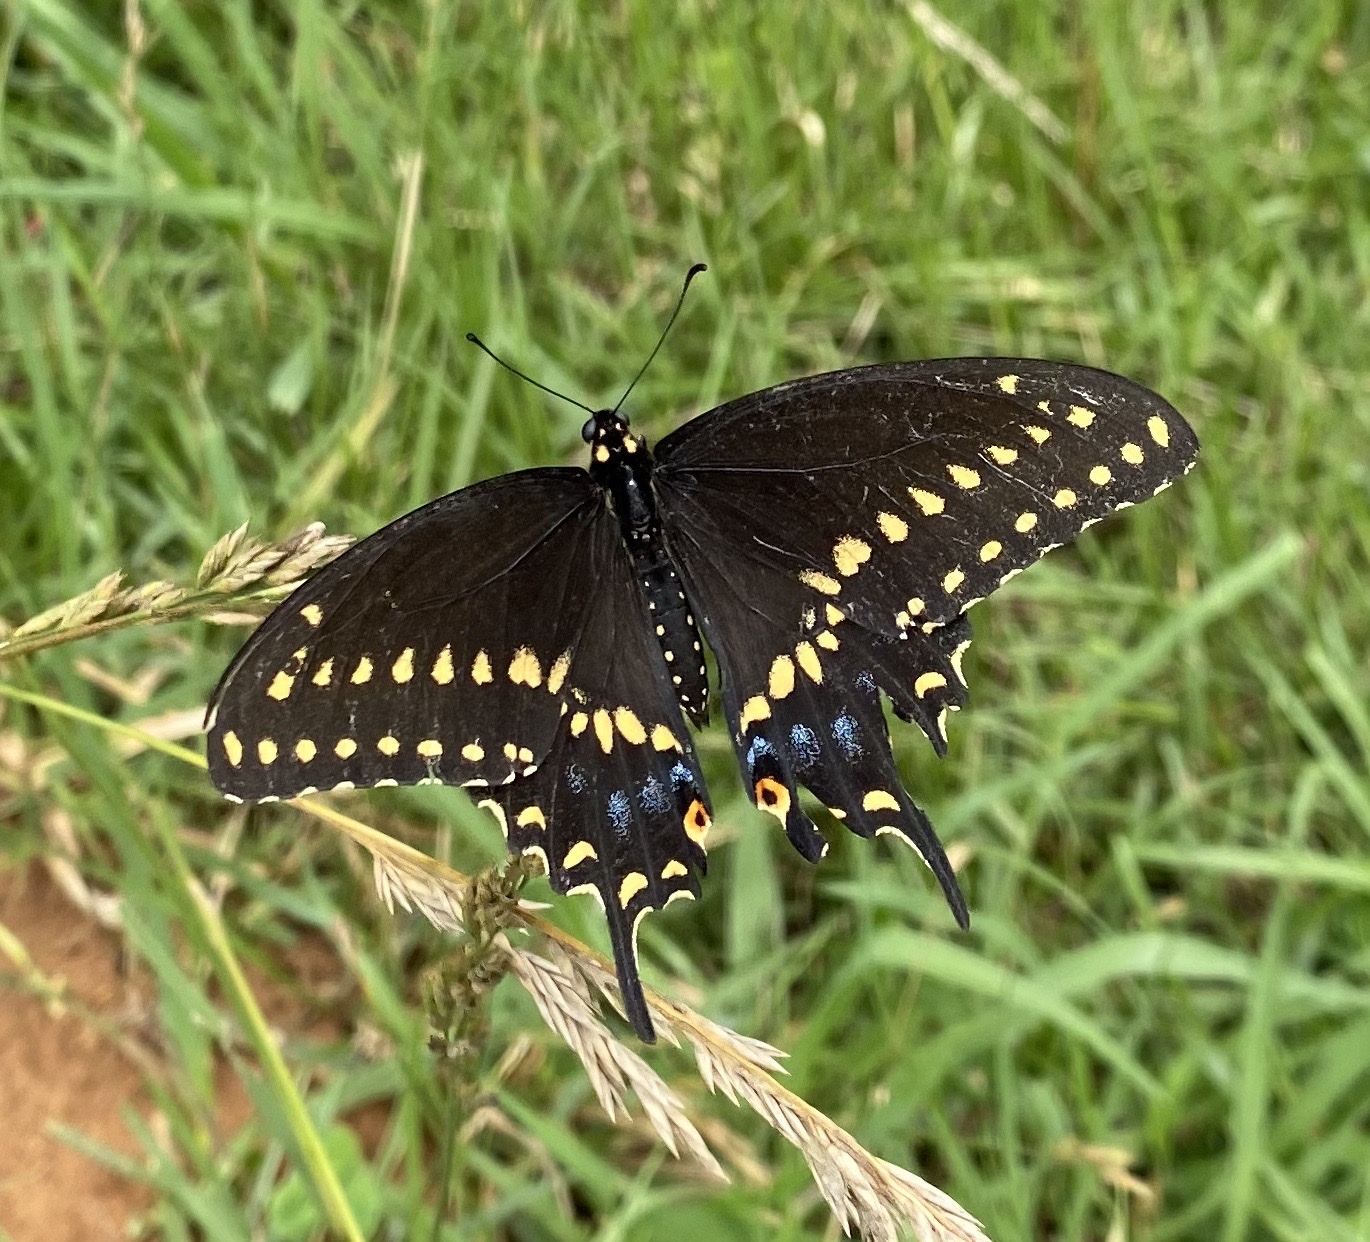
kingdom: Animalia
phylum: Arthropoda
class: Insecta
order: Lepidoptera
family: Papilionidae
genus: Papilio
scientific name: Papilio polyxenes
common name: Black swallowtail
